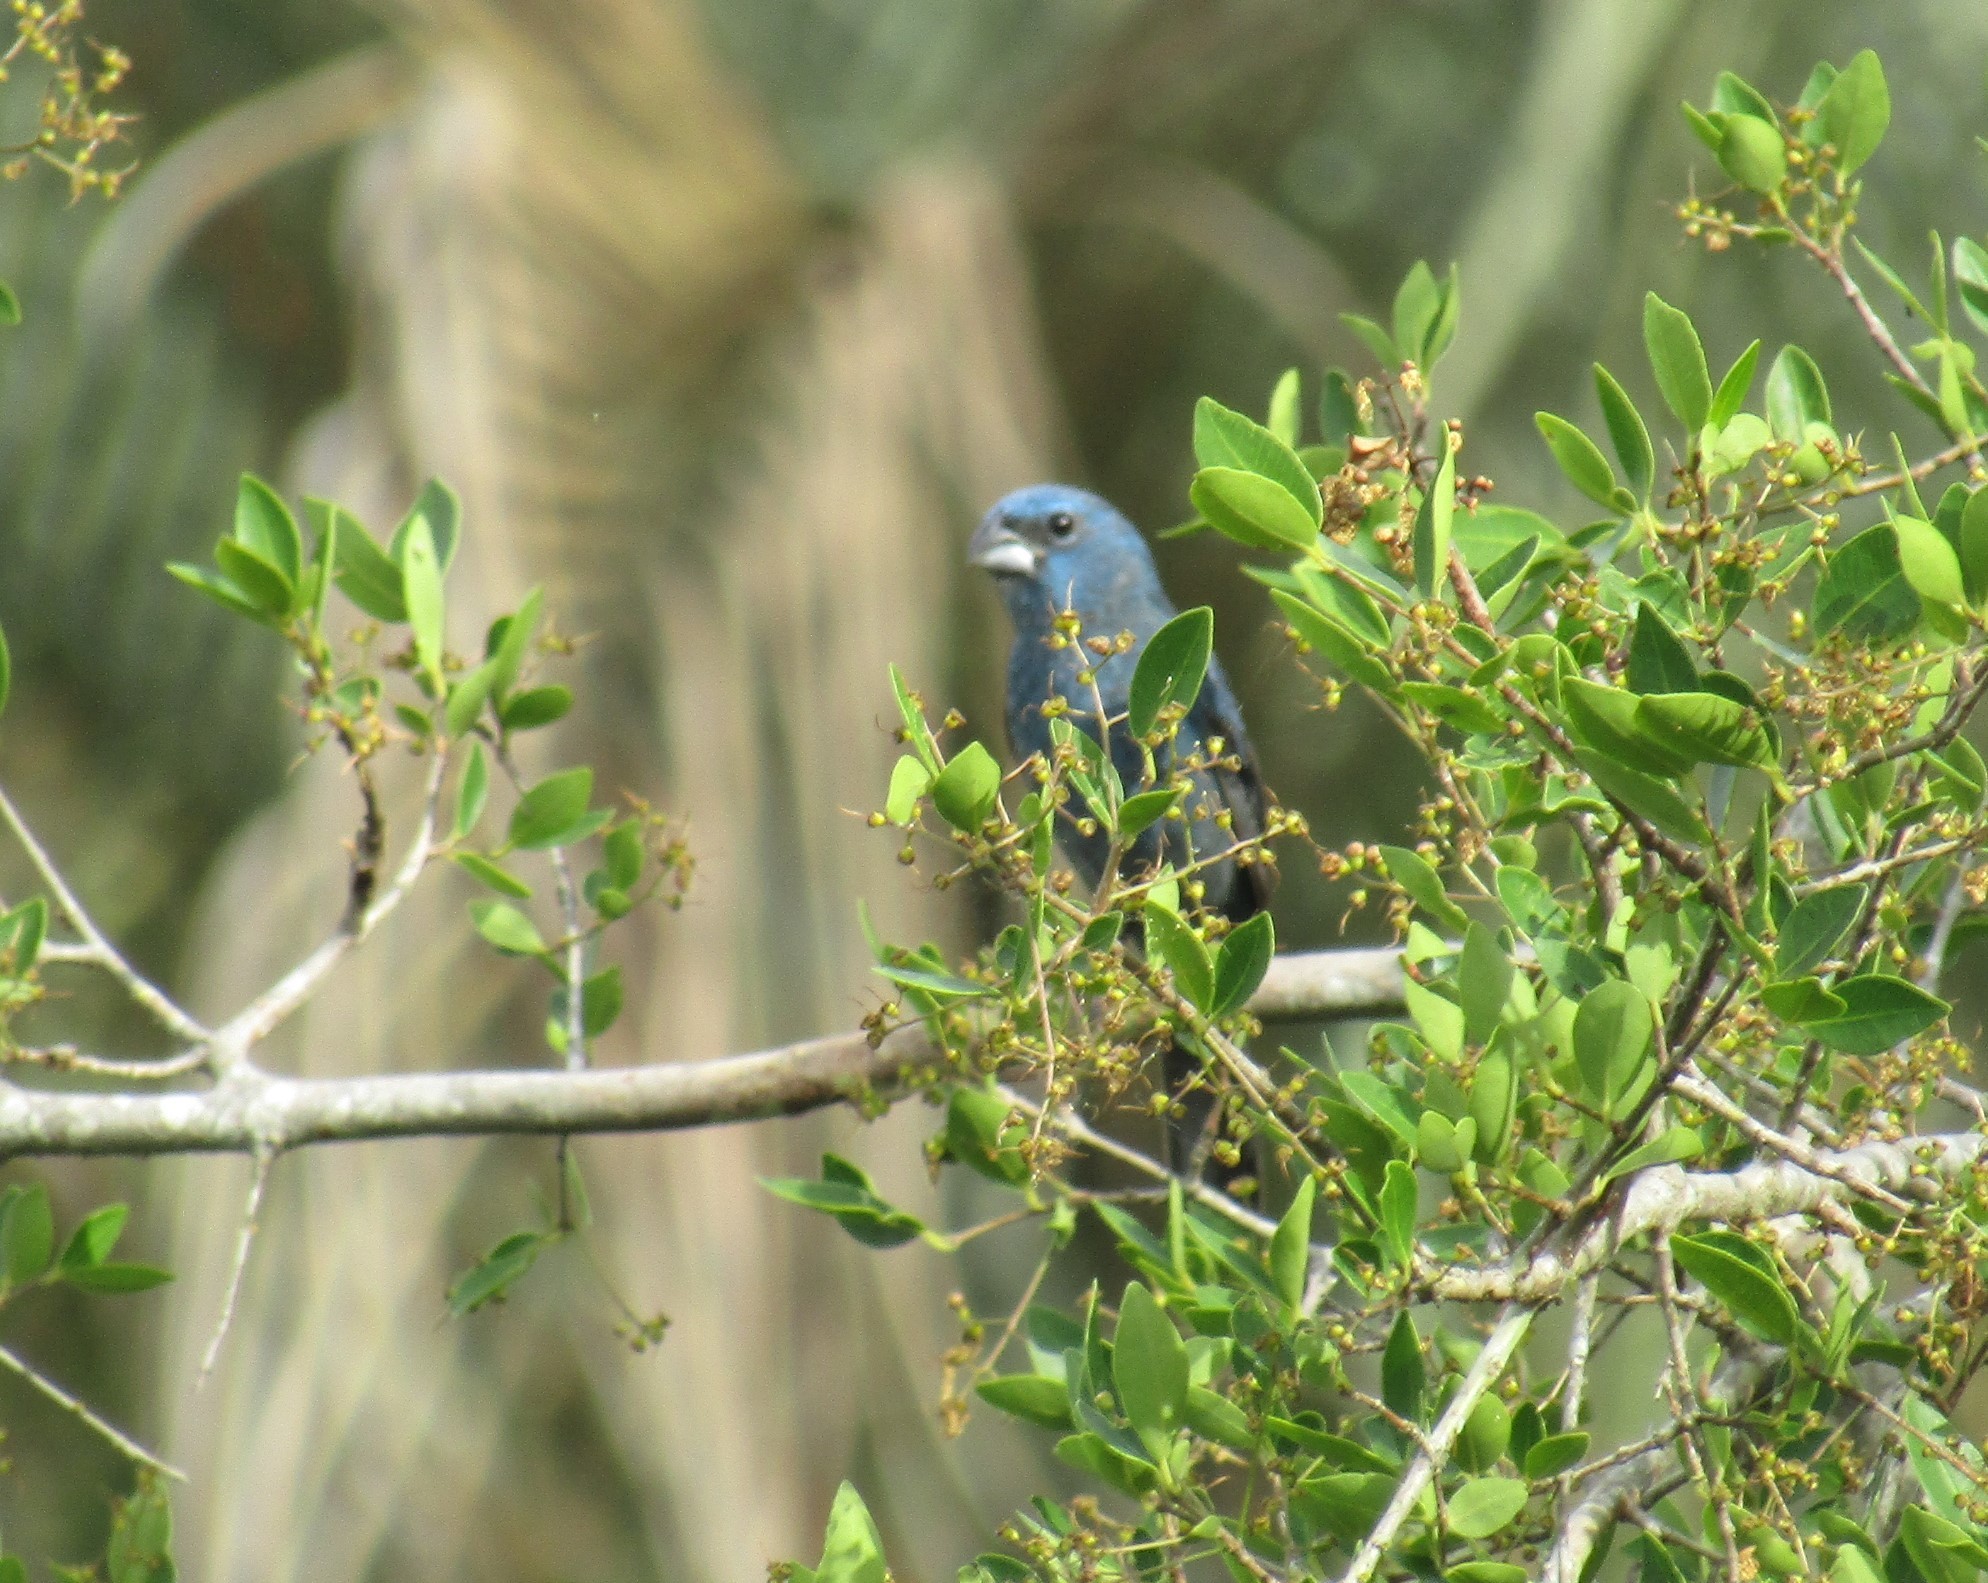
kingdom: Animalia
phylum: Chordata
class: Aves
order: Passeriformes
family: Cardinalidae
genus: Cyanoloxia
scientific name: Cyanoloxia glaucocaerulea
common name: Glaucous-blue grosbeak
